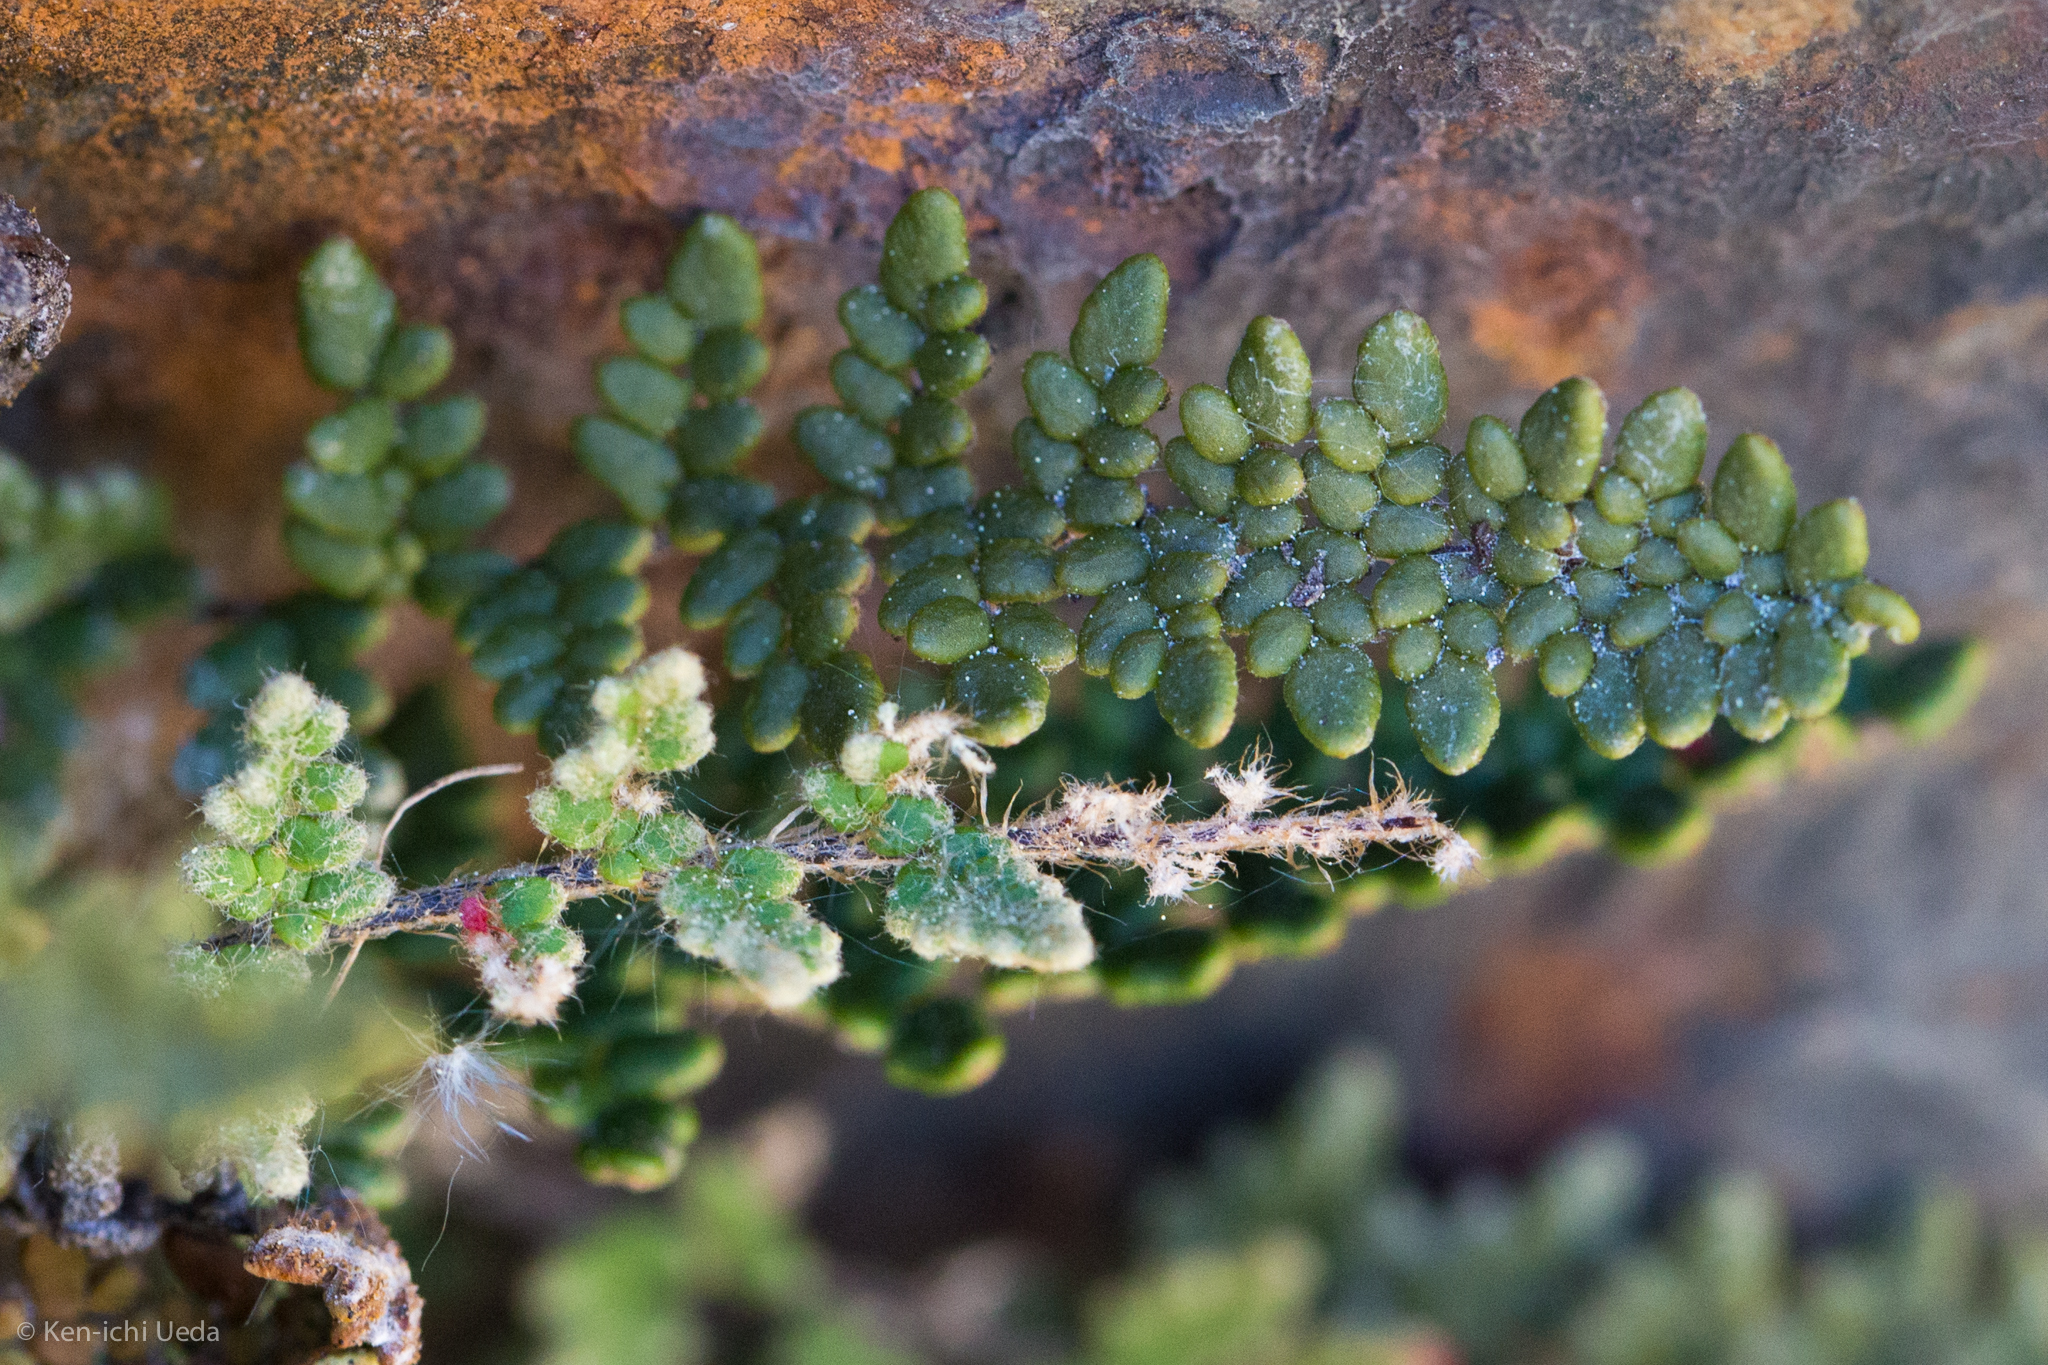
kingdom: Plantae
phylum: Tracheophyta
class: Polypodiopsida
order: Polypodiales
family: Pteridaceae
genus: Myriopteris
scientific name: Myriopteris gracillima
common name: Lace fern
